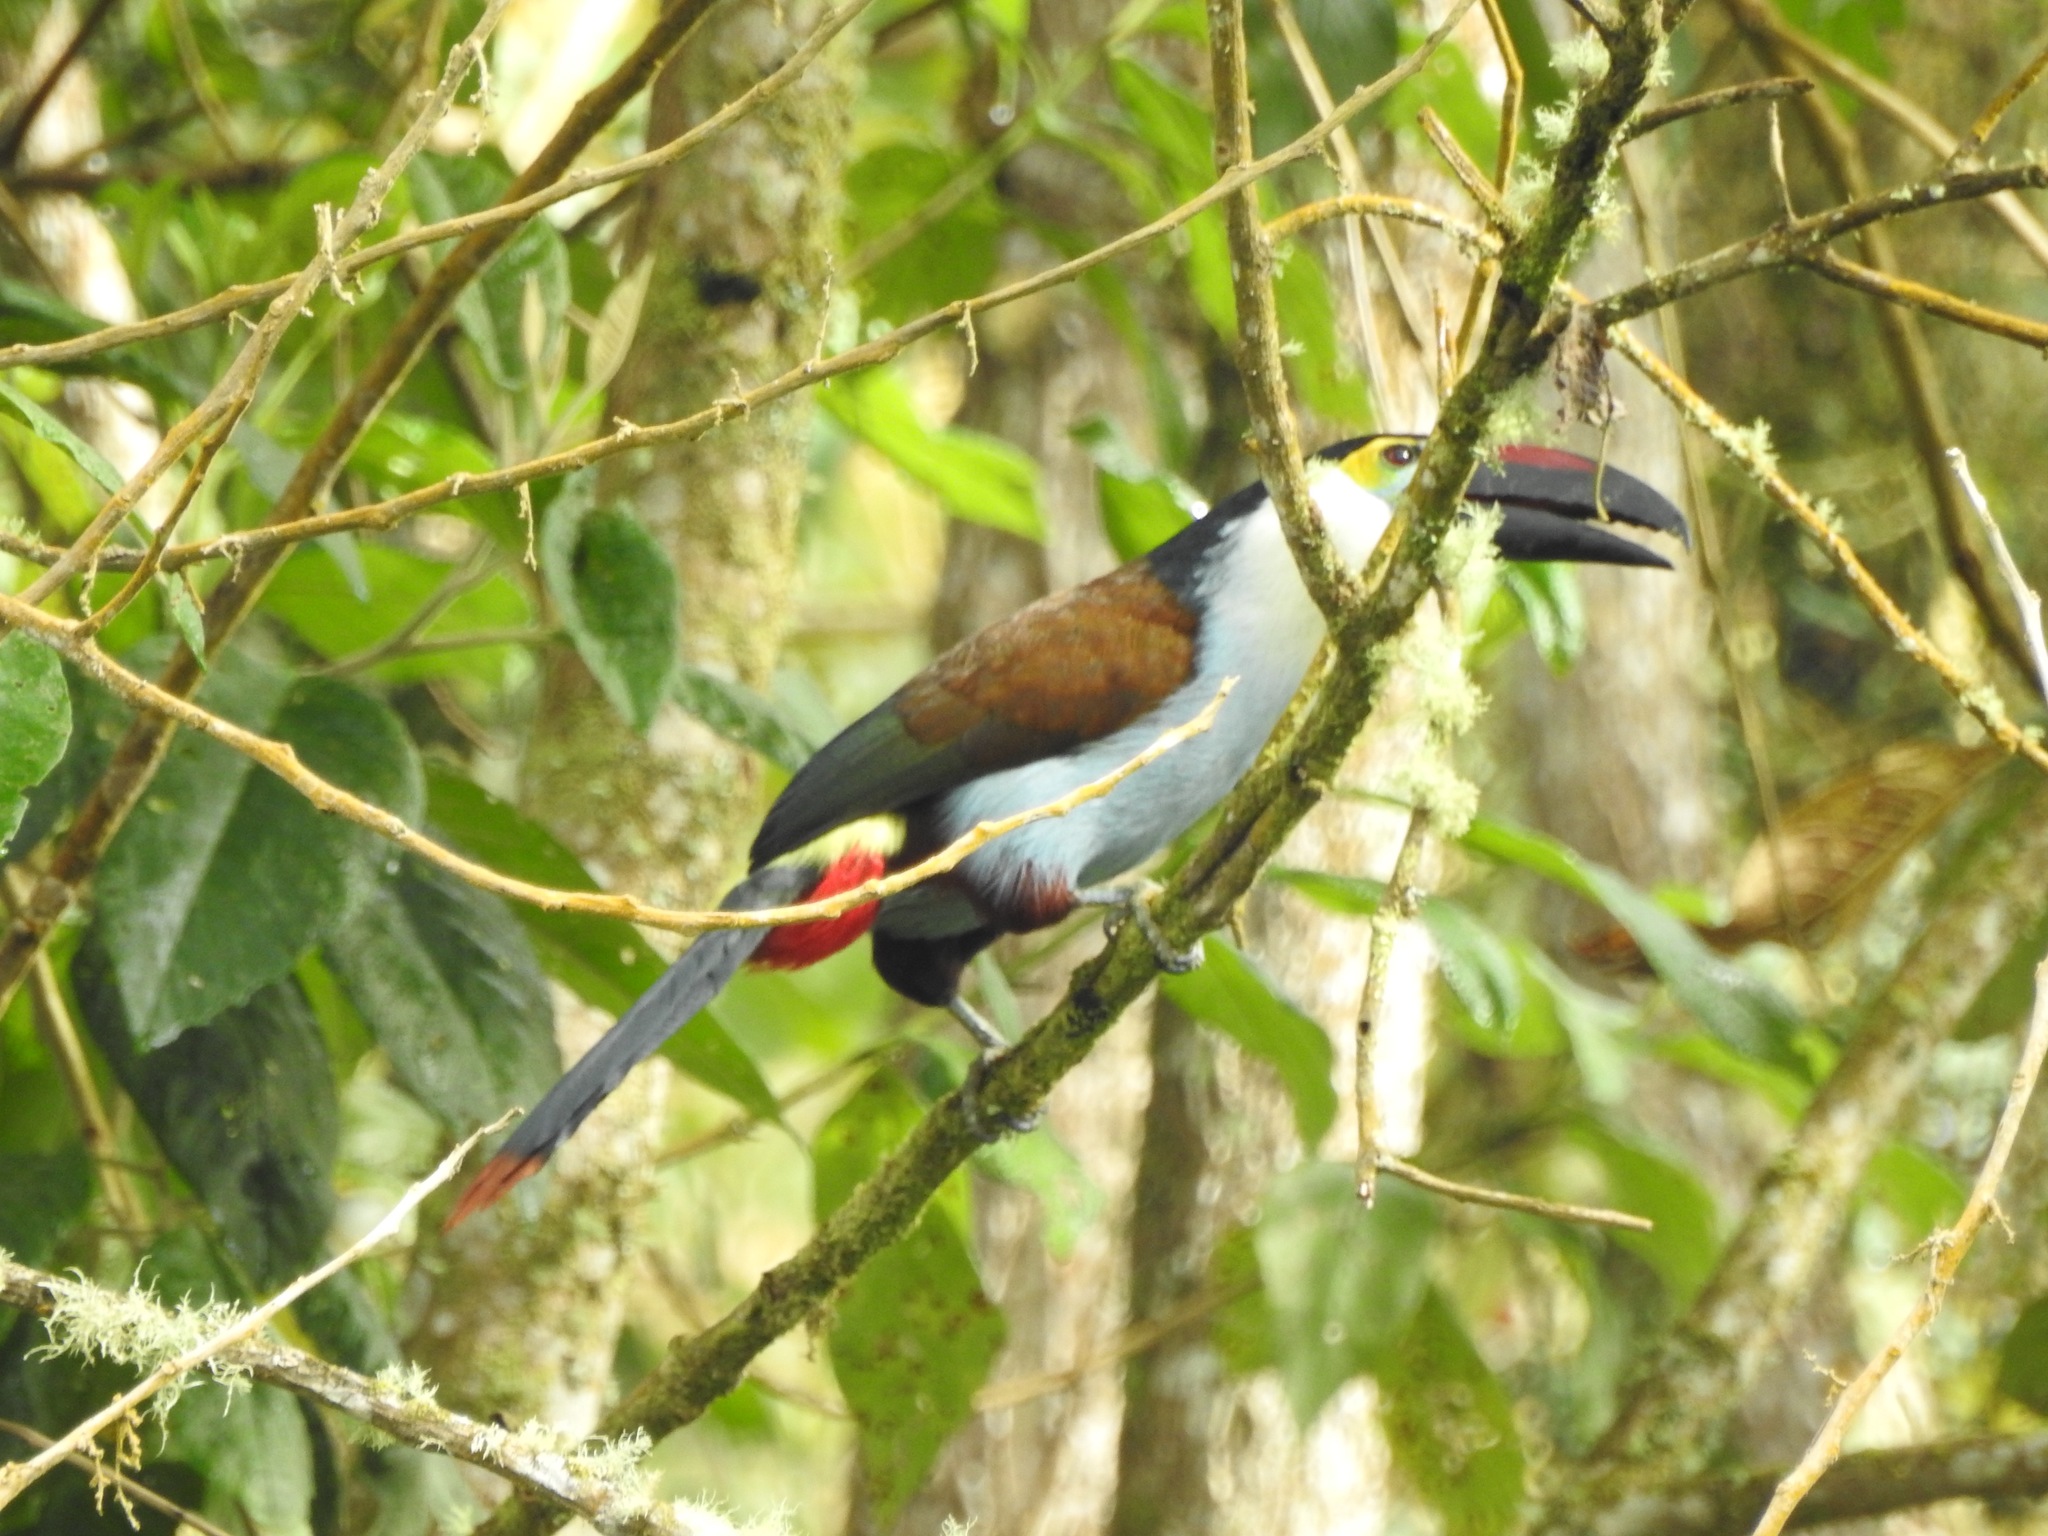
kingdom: Animalia
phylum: Chordata
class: Aves
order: Piciformes
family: Ramphastidae
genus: Andigena
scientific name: Andigena nigrirostris
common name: Black-billed mountain toucan
